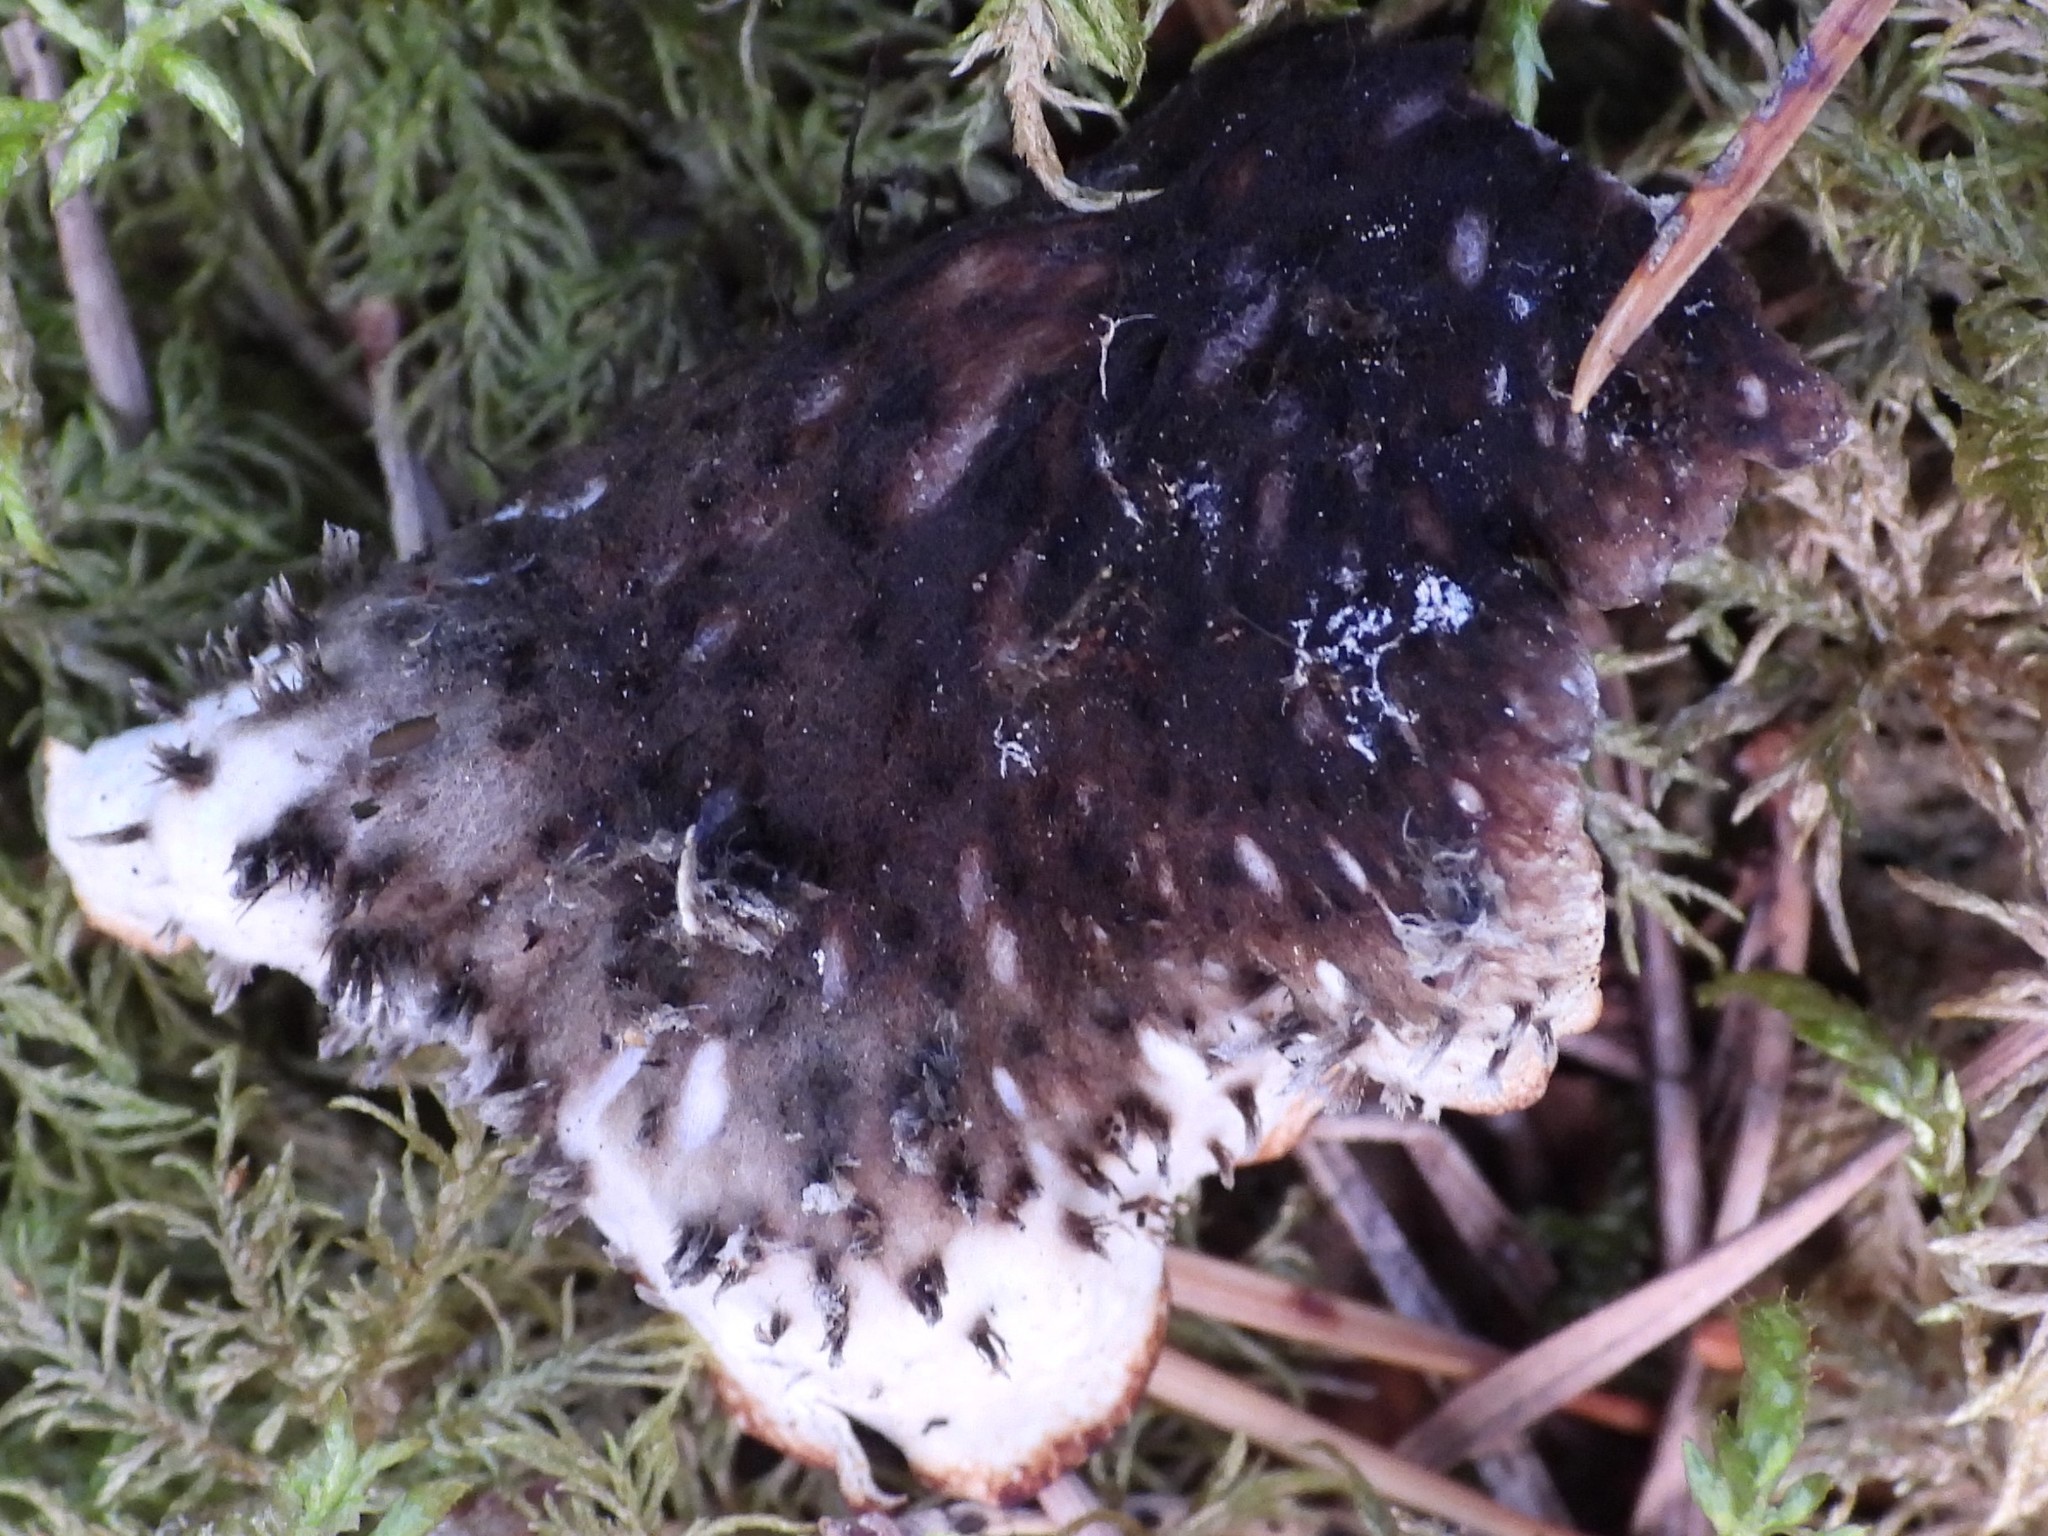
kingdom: Fungi
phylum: Ascomycota
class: Lecanoromycetes
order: Peltigerales
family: Peltigeraceae
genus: Peltigera
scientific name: Peltigera neckeri
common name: Blacksaddle pelt lichen
